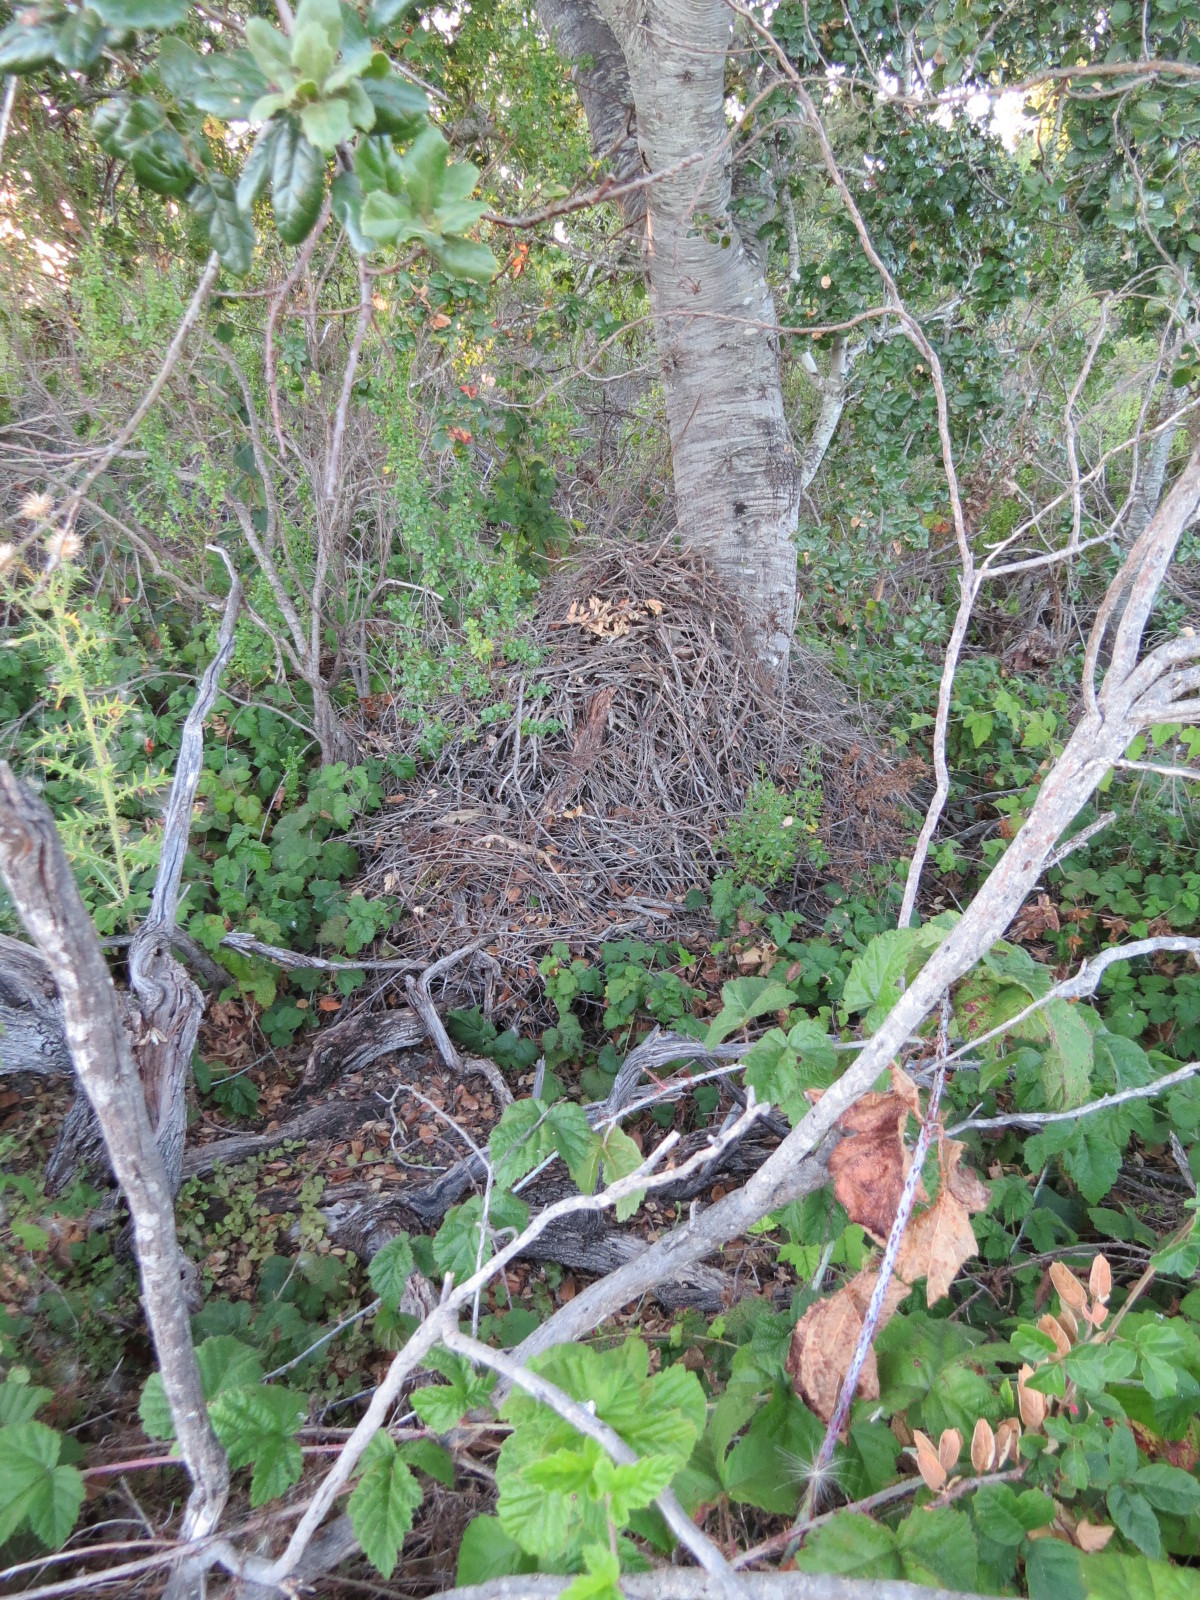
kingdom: Animalia
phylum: Chordata
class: Mammalia
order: Rodentia
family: Cricetidae
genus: Neotoma
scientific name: Neotoma fuscipes
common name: Dusky-footed woodrat
